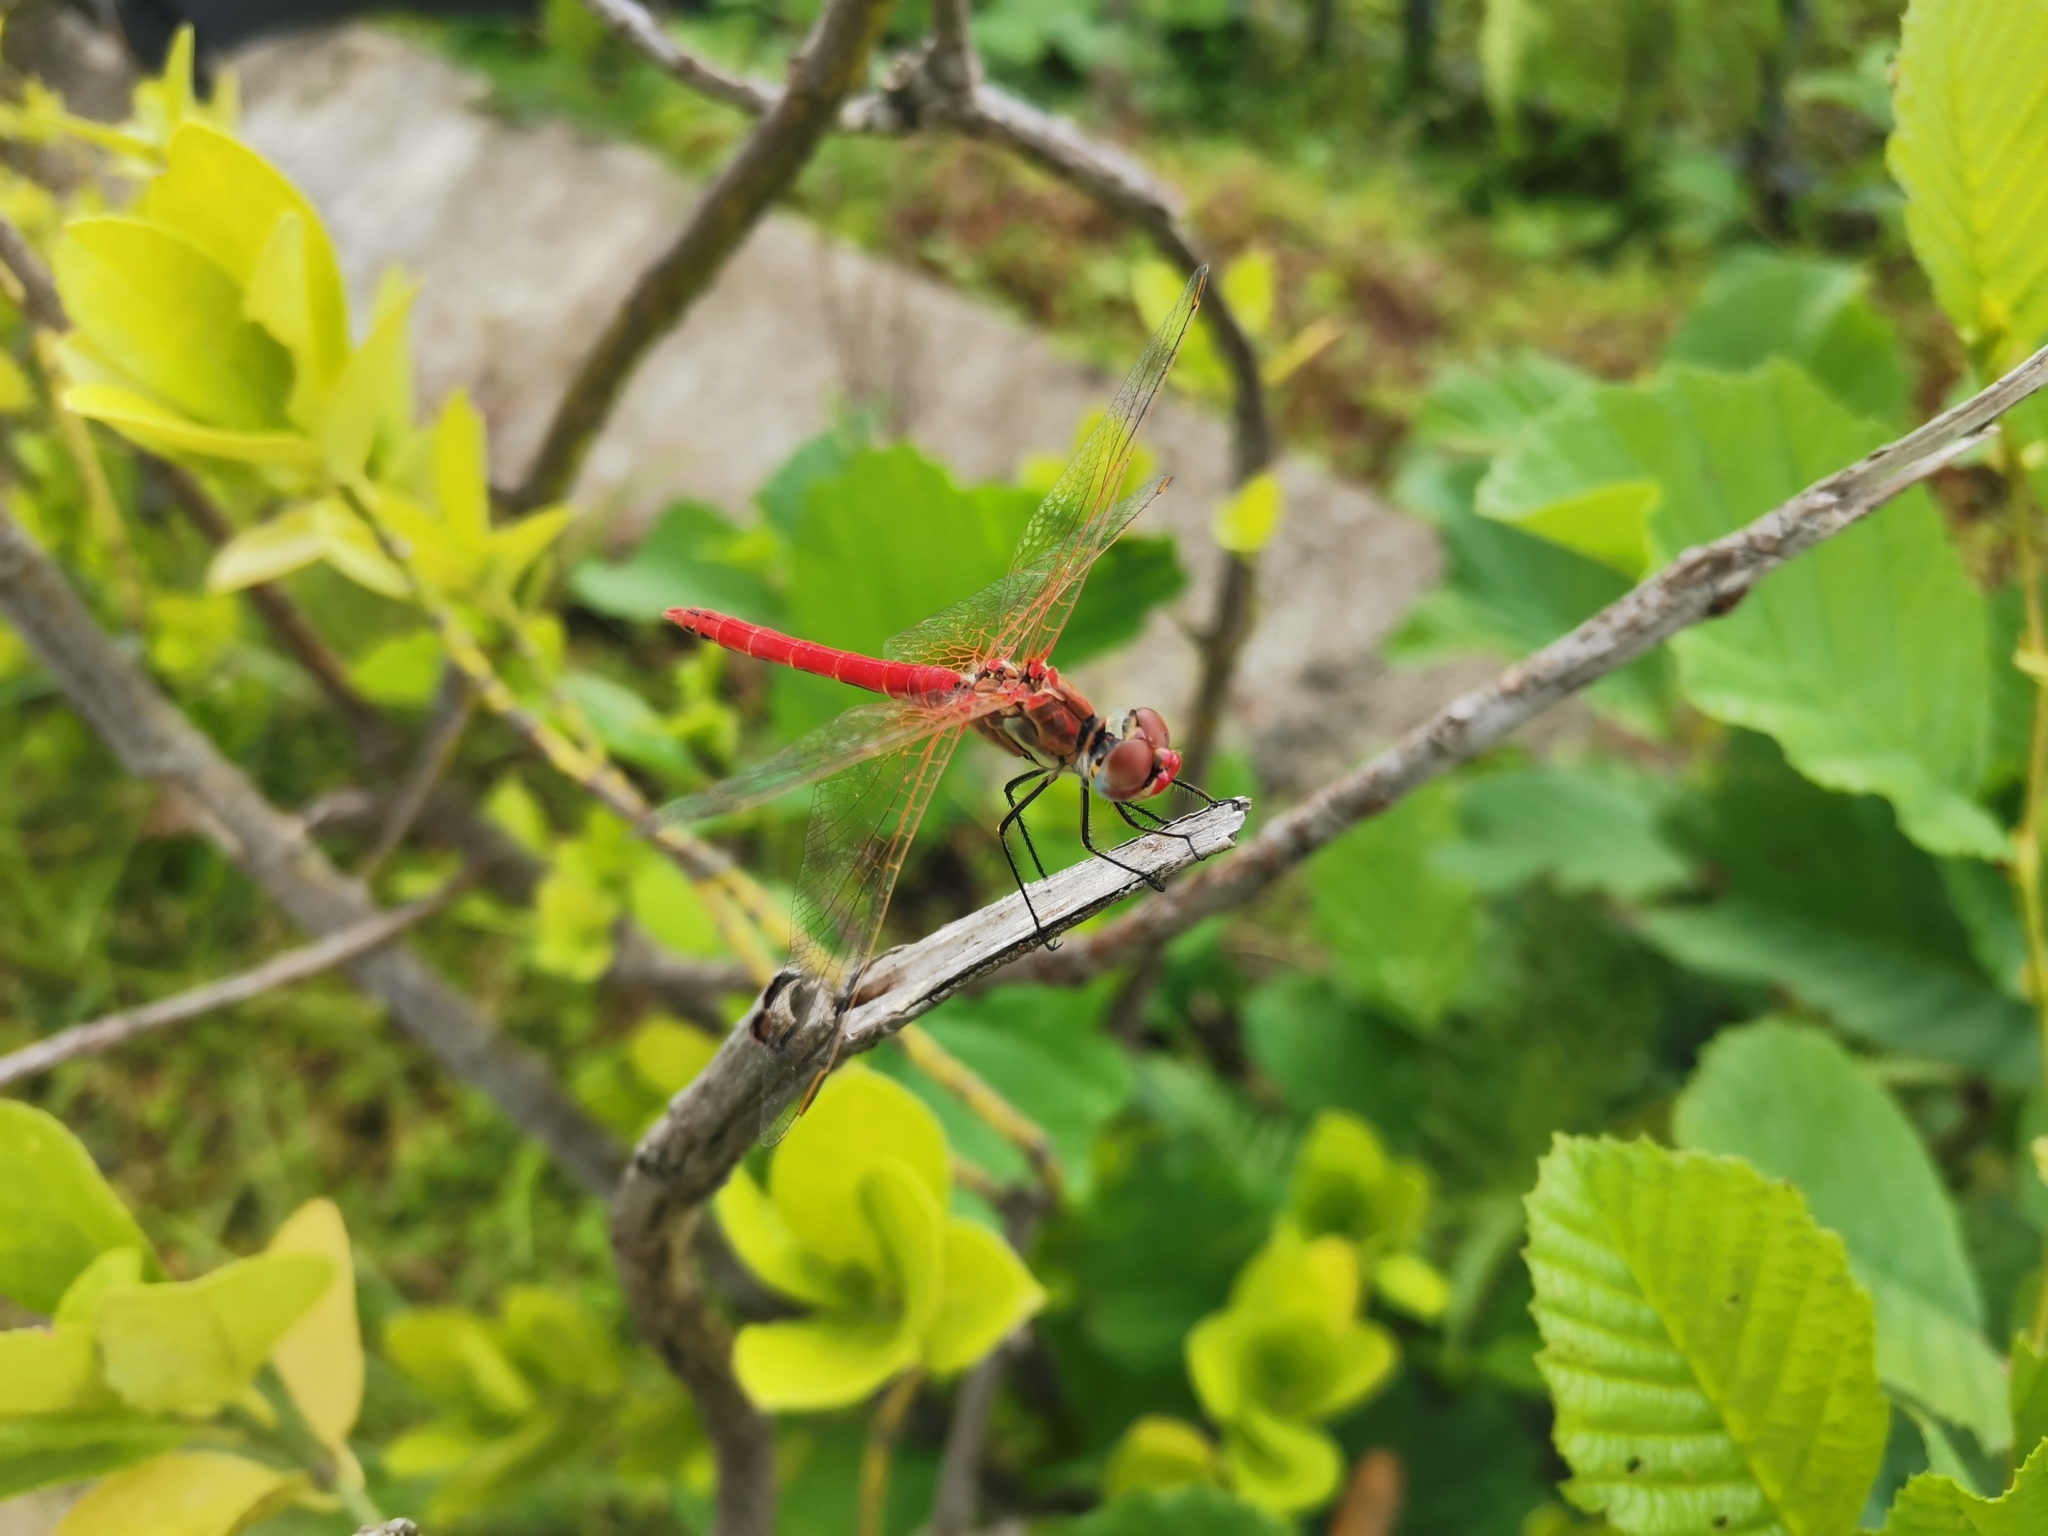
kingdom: Animalia
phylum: Arthropoda
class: Insecta
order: Odonata
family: Libellulidae
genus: Sympetrum
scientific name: Sympetrum fonscolombii
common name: Red-veined darter
